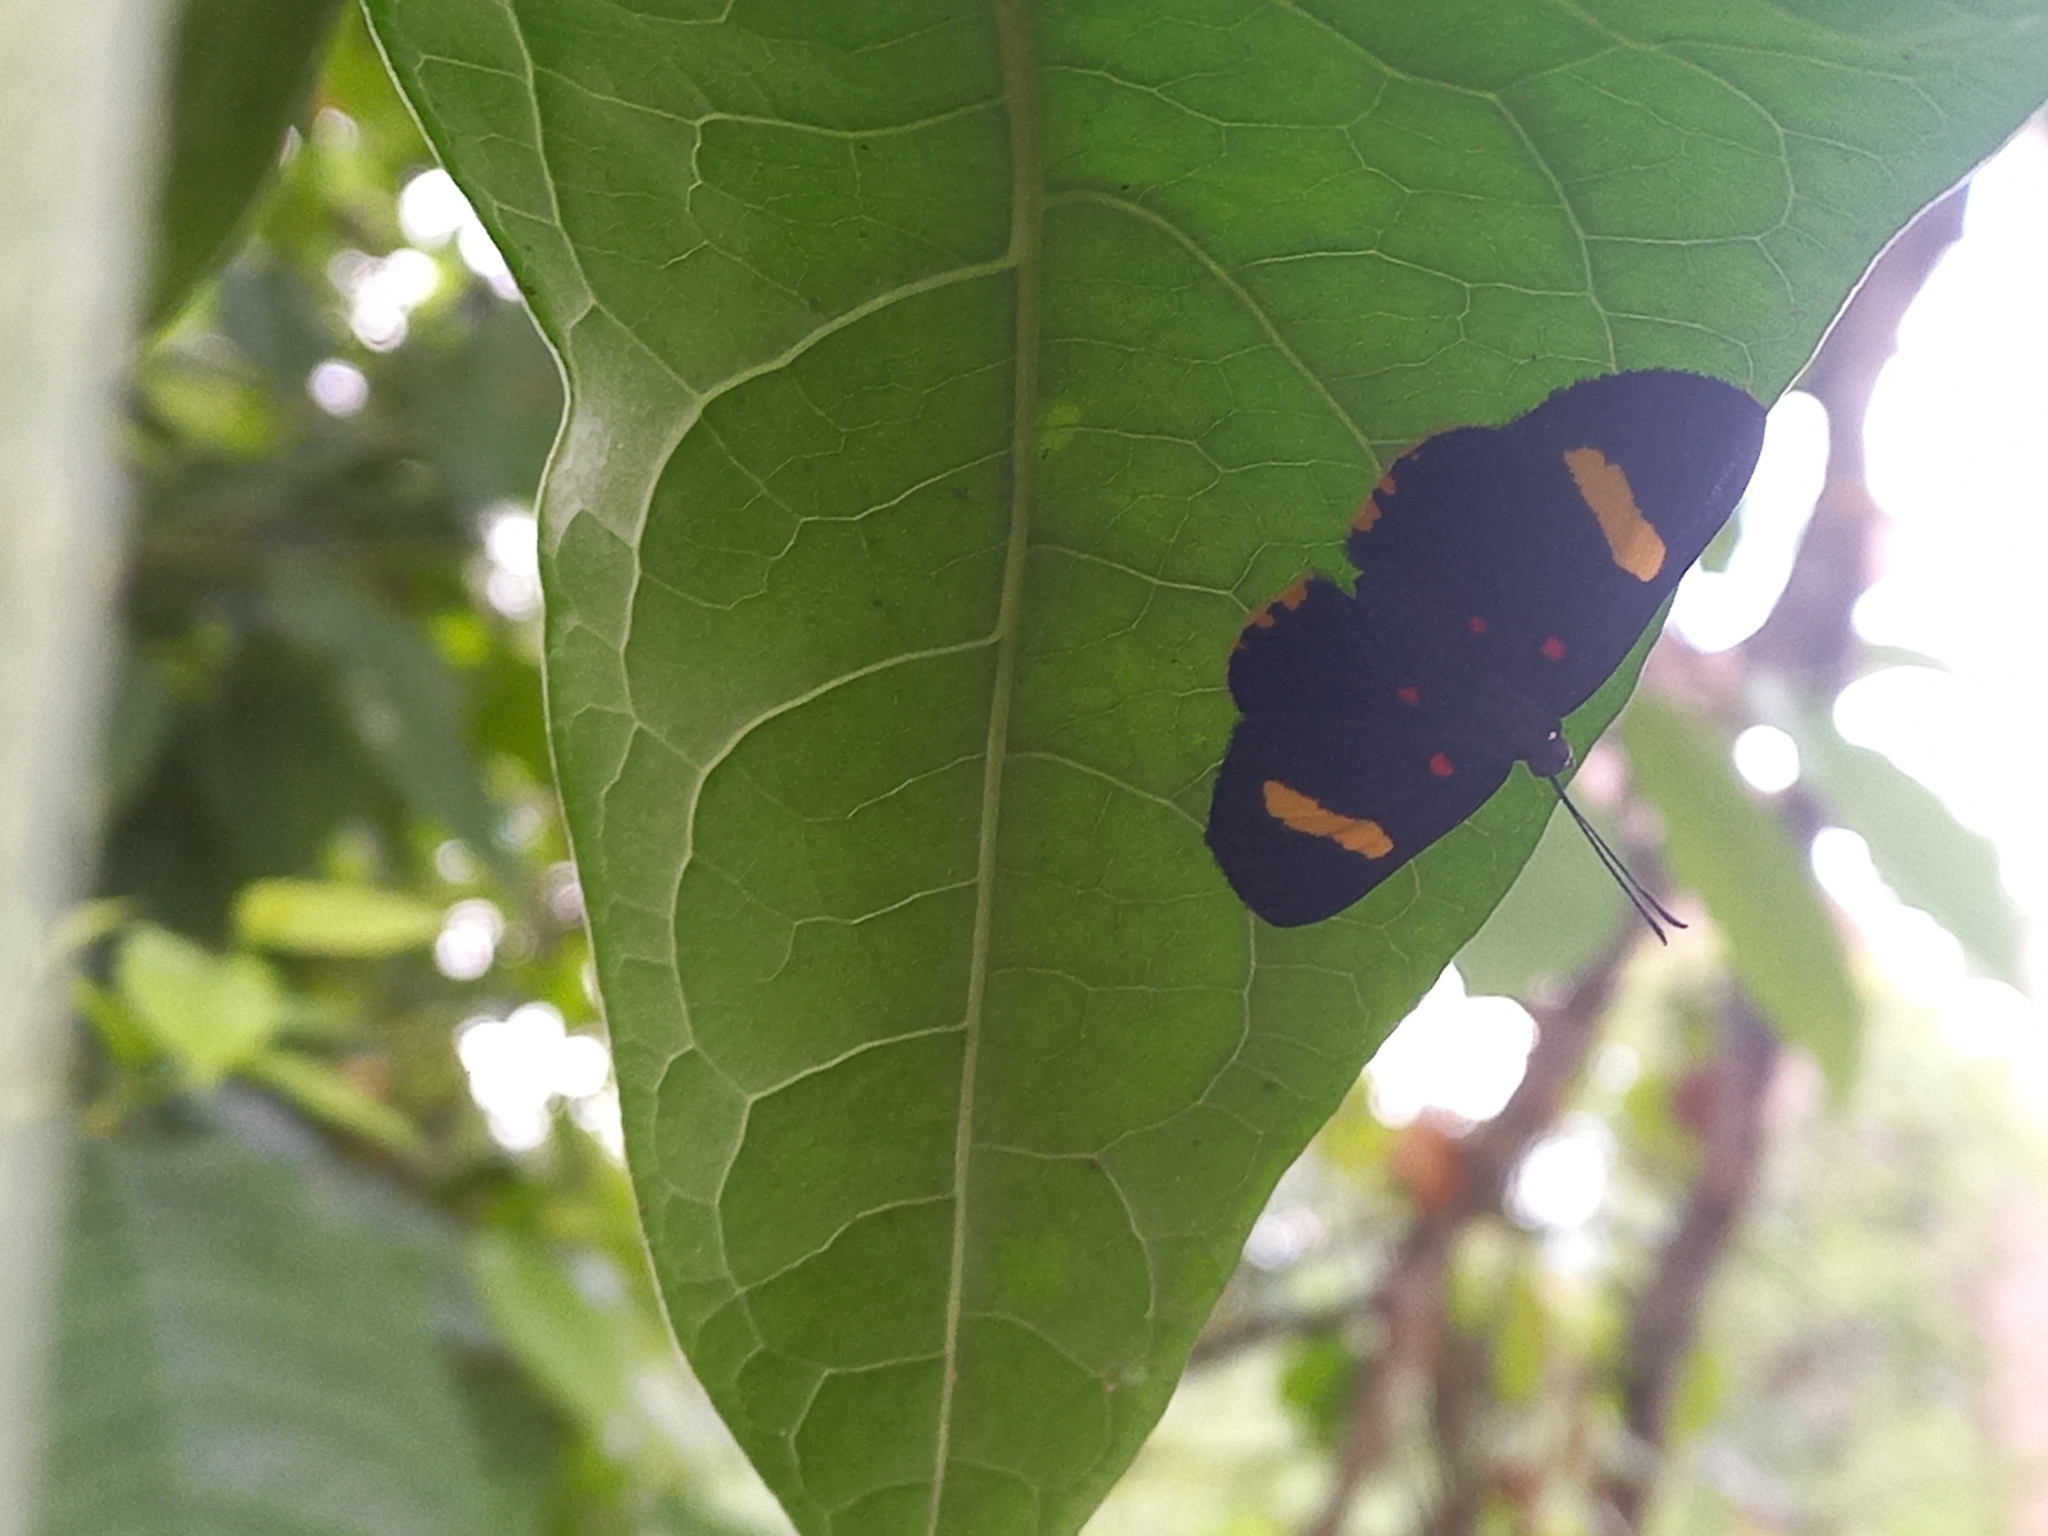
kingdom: Animalia
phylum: Arthropoda
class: Insecta
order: Lepidoptera
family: Lycaenidae
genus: Melanis
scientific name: Melanis electron
